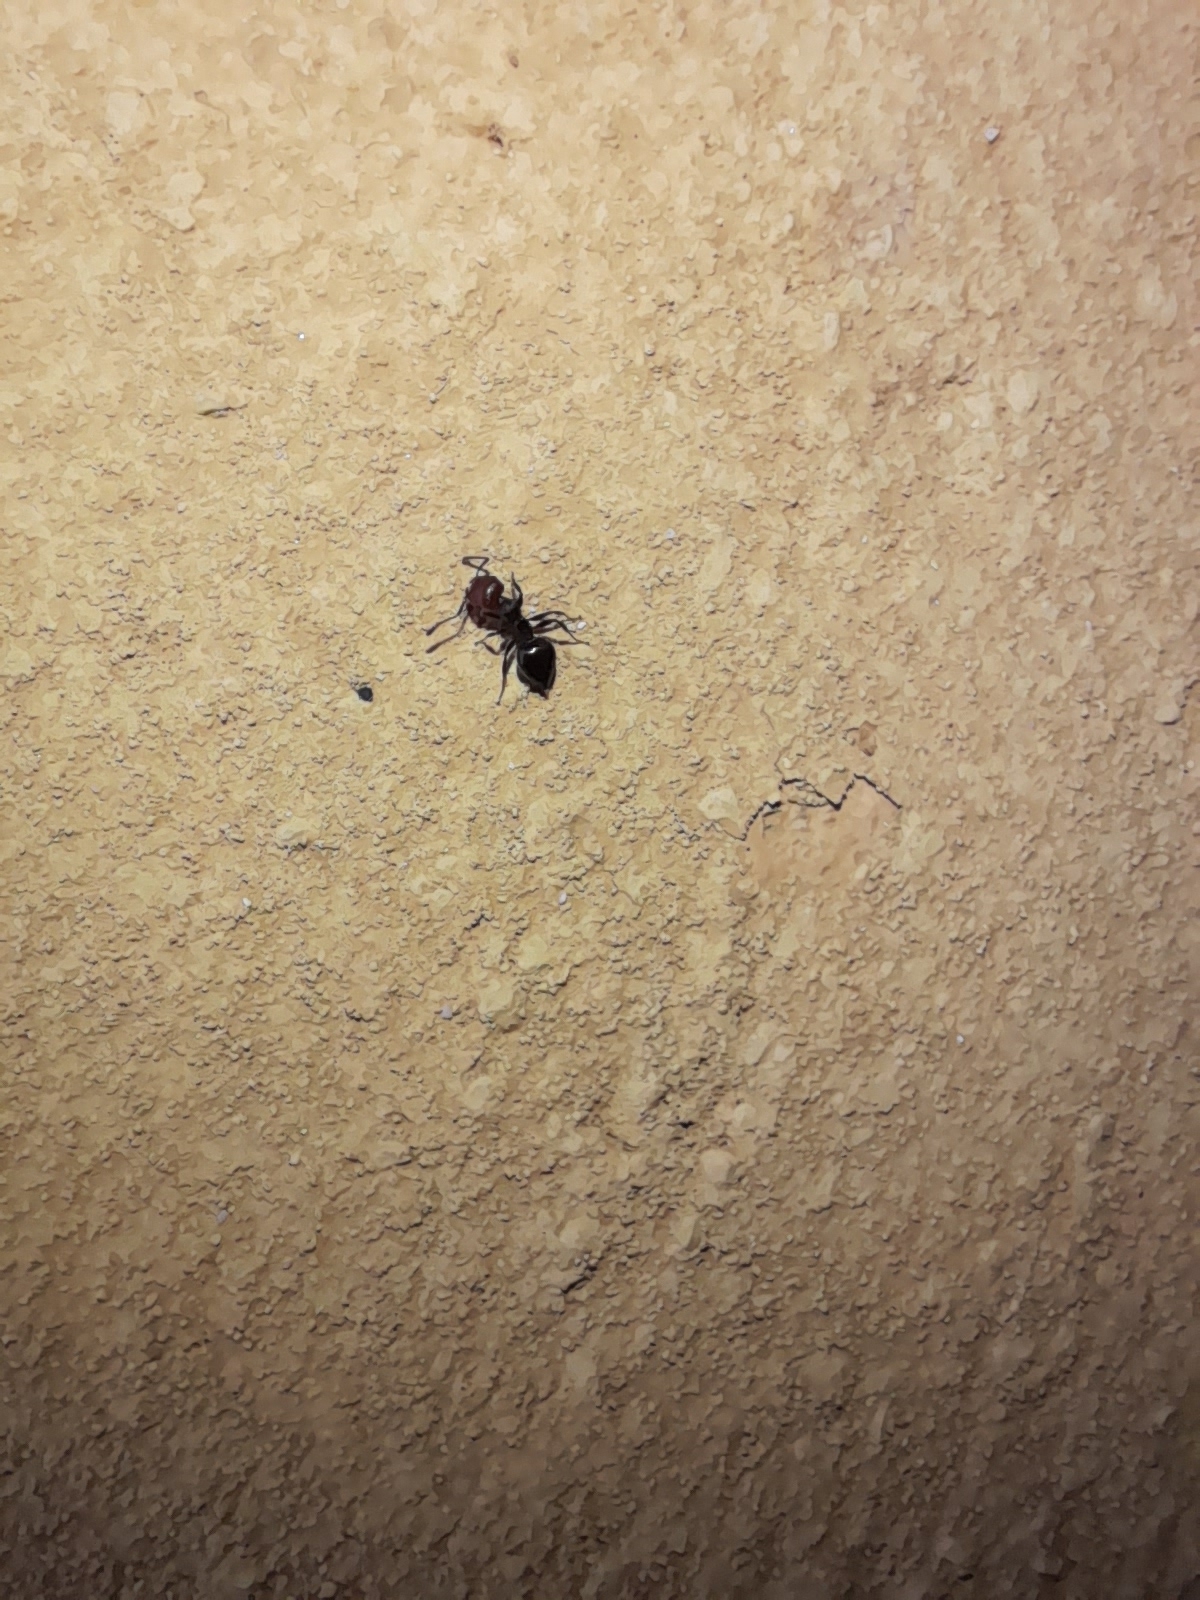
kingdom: Animalia
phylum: Arthropoda
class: Insecta
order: Hymenoptera
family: Formicidae
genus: Crematogaster
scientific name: Crematogaster scutellaris
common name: Fourmi du liège
